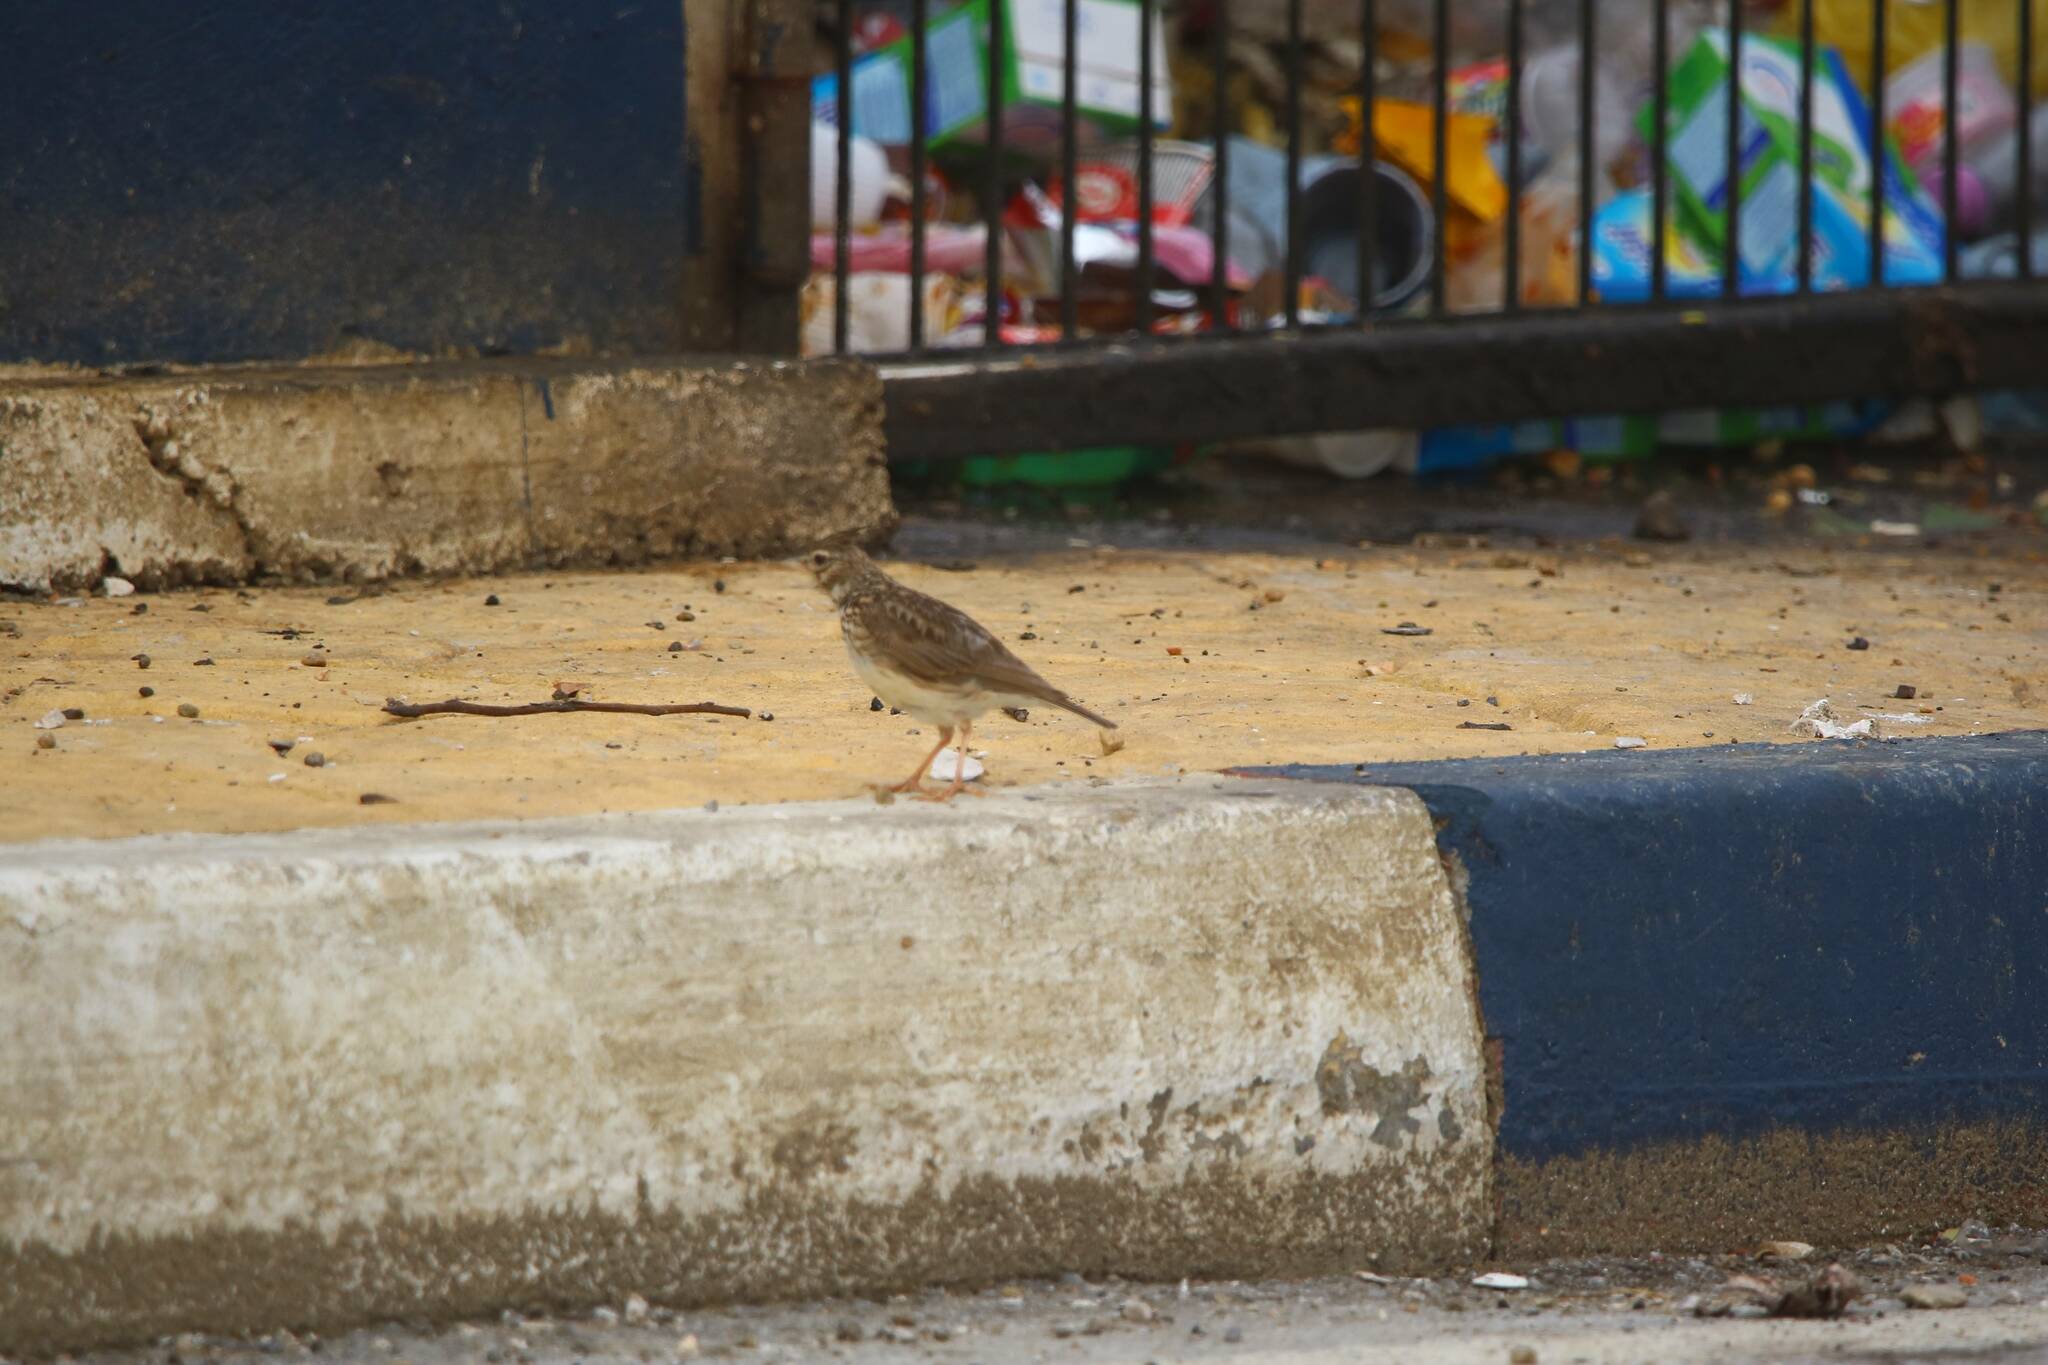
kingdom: Animalia
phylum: Chordata
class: Aves
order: Passeriformes
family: Alaudidae
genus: Galerida
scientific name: Galerida theklae
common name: Thekla lark
